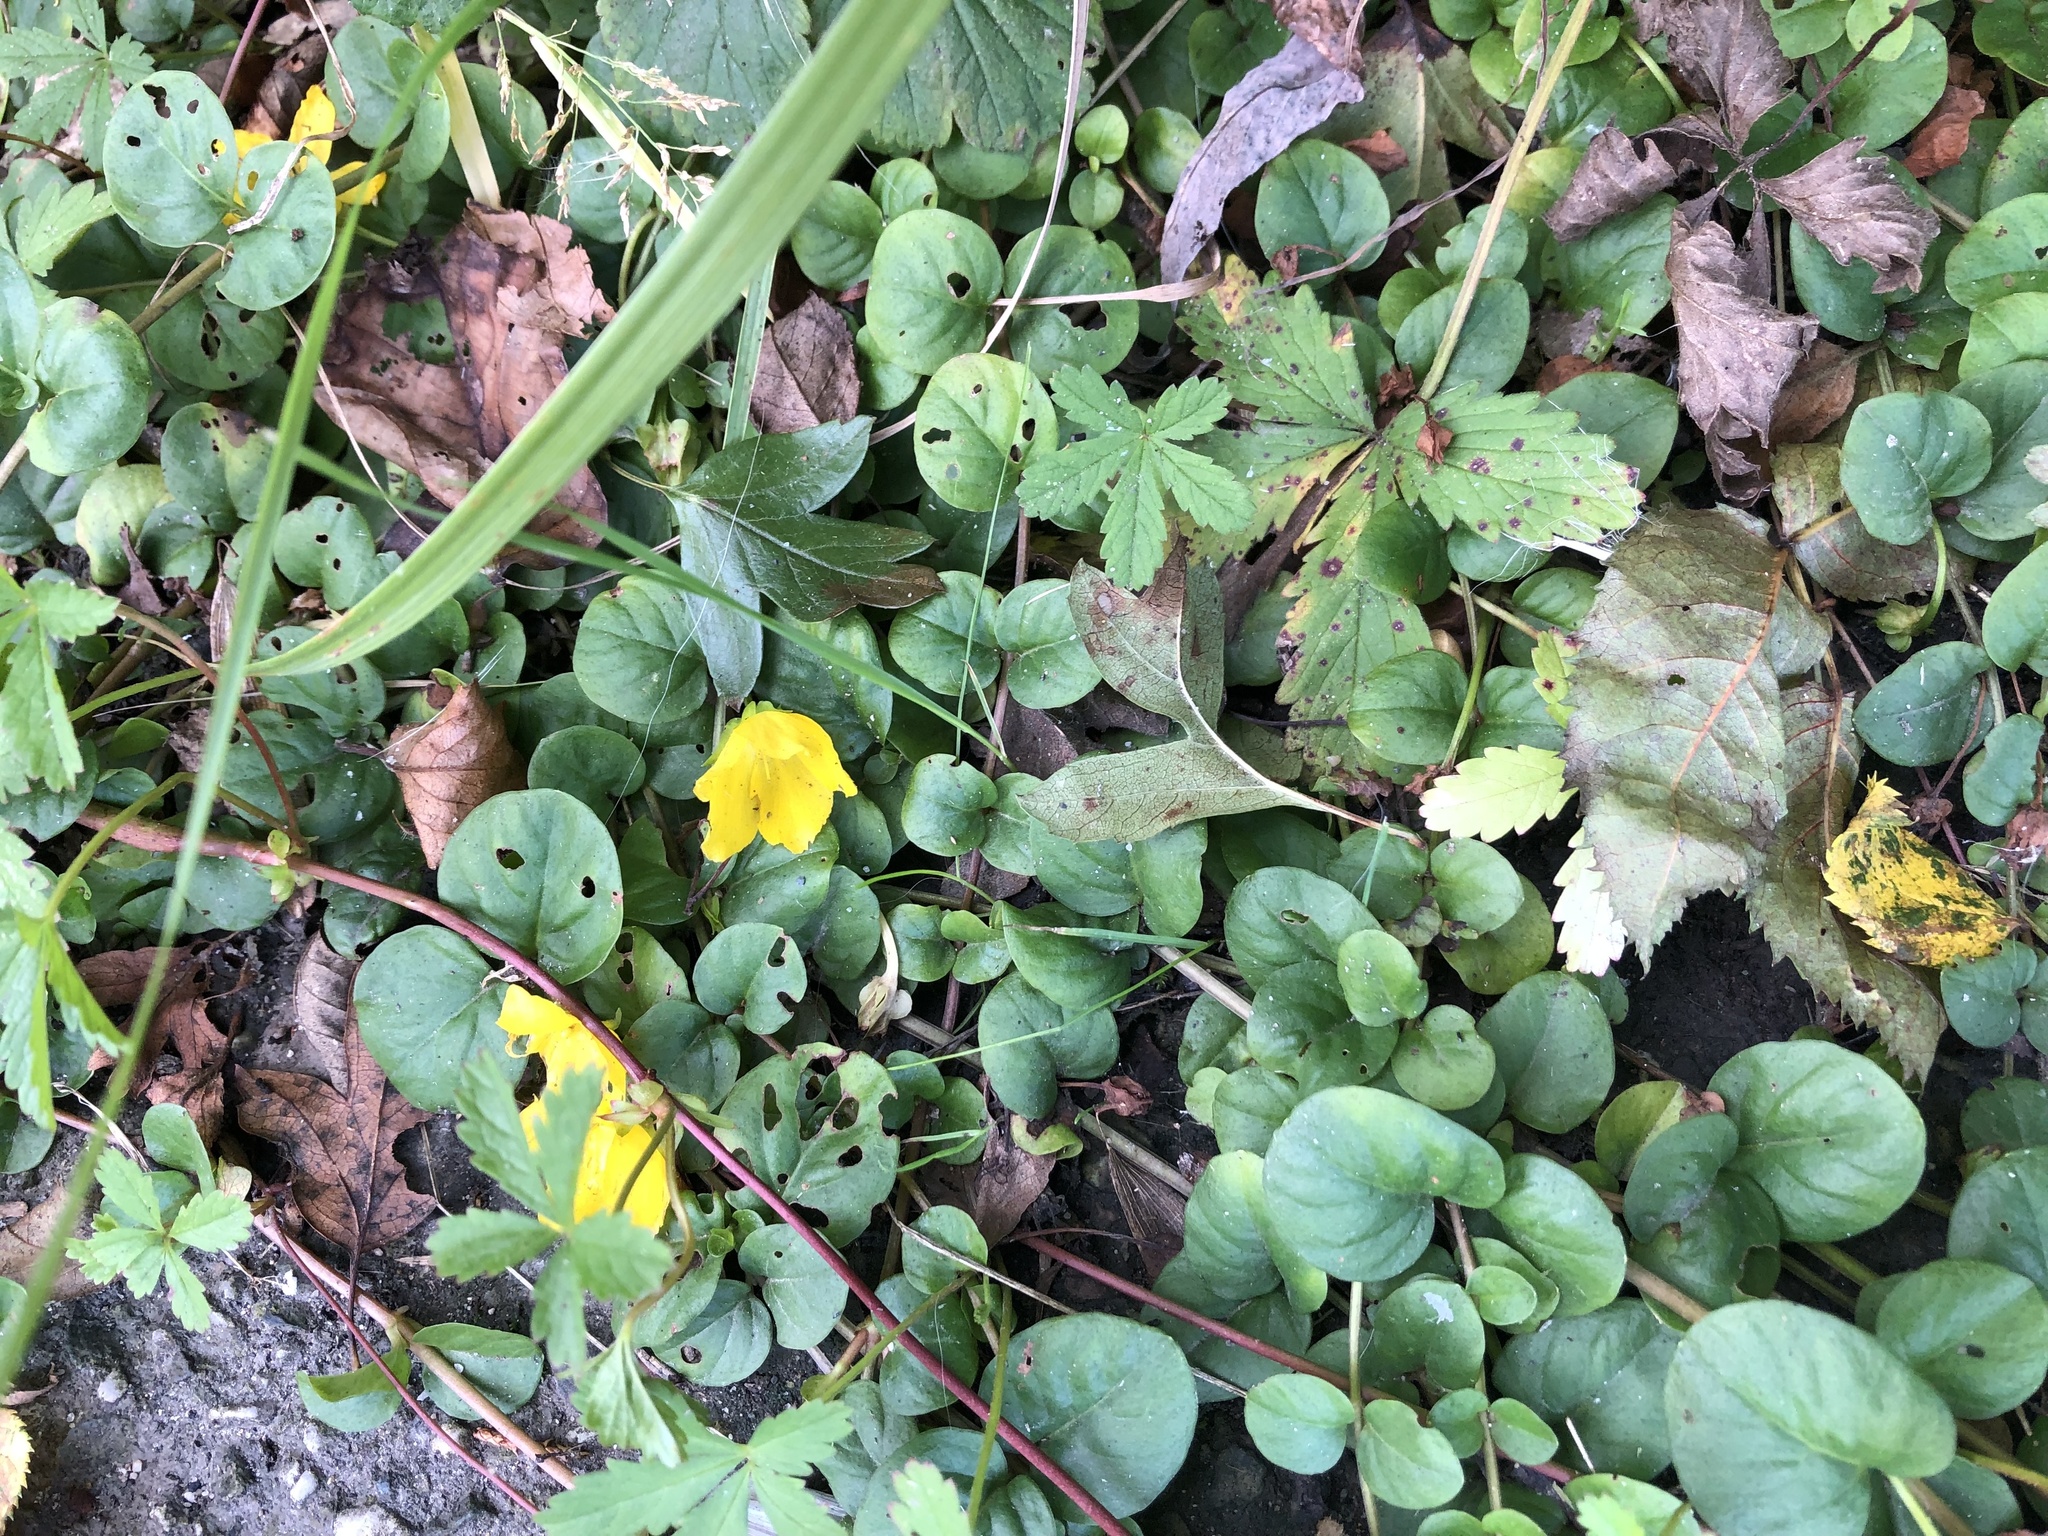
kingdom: Plantae
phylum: Tracheophyta
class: Magnoliopsida
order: Ericales
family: Primulaceae
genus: Lysimachia
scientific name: Lysimachia nummularia
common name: Moneywort
